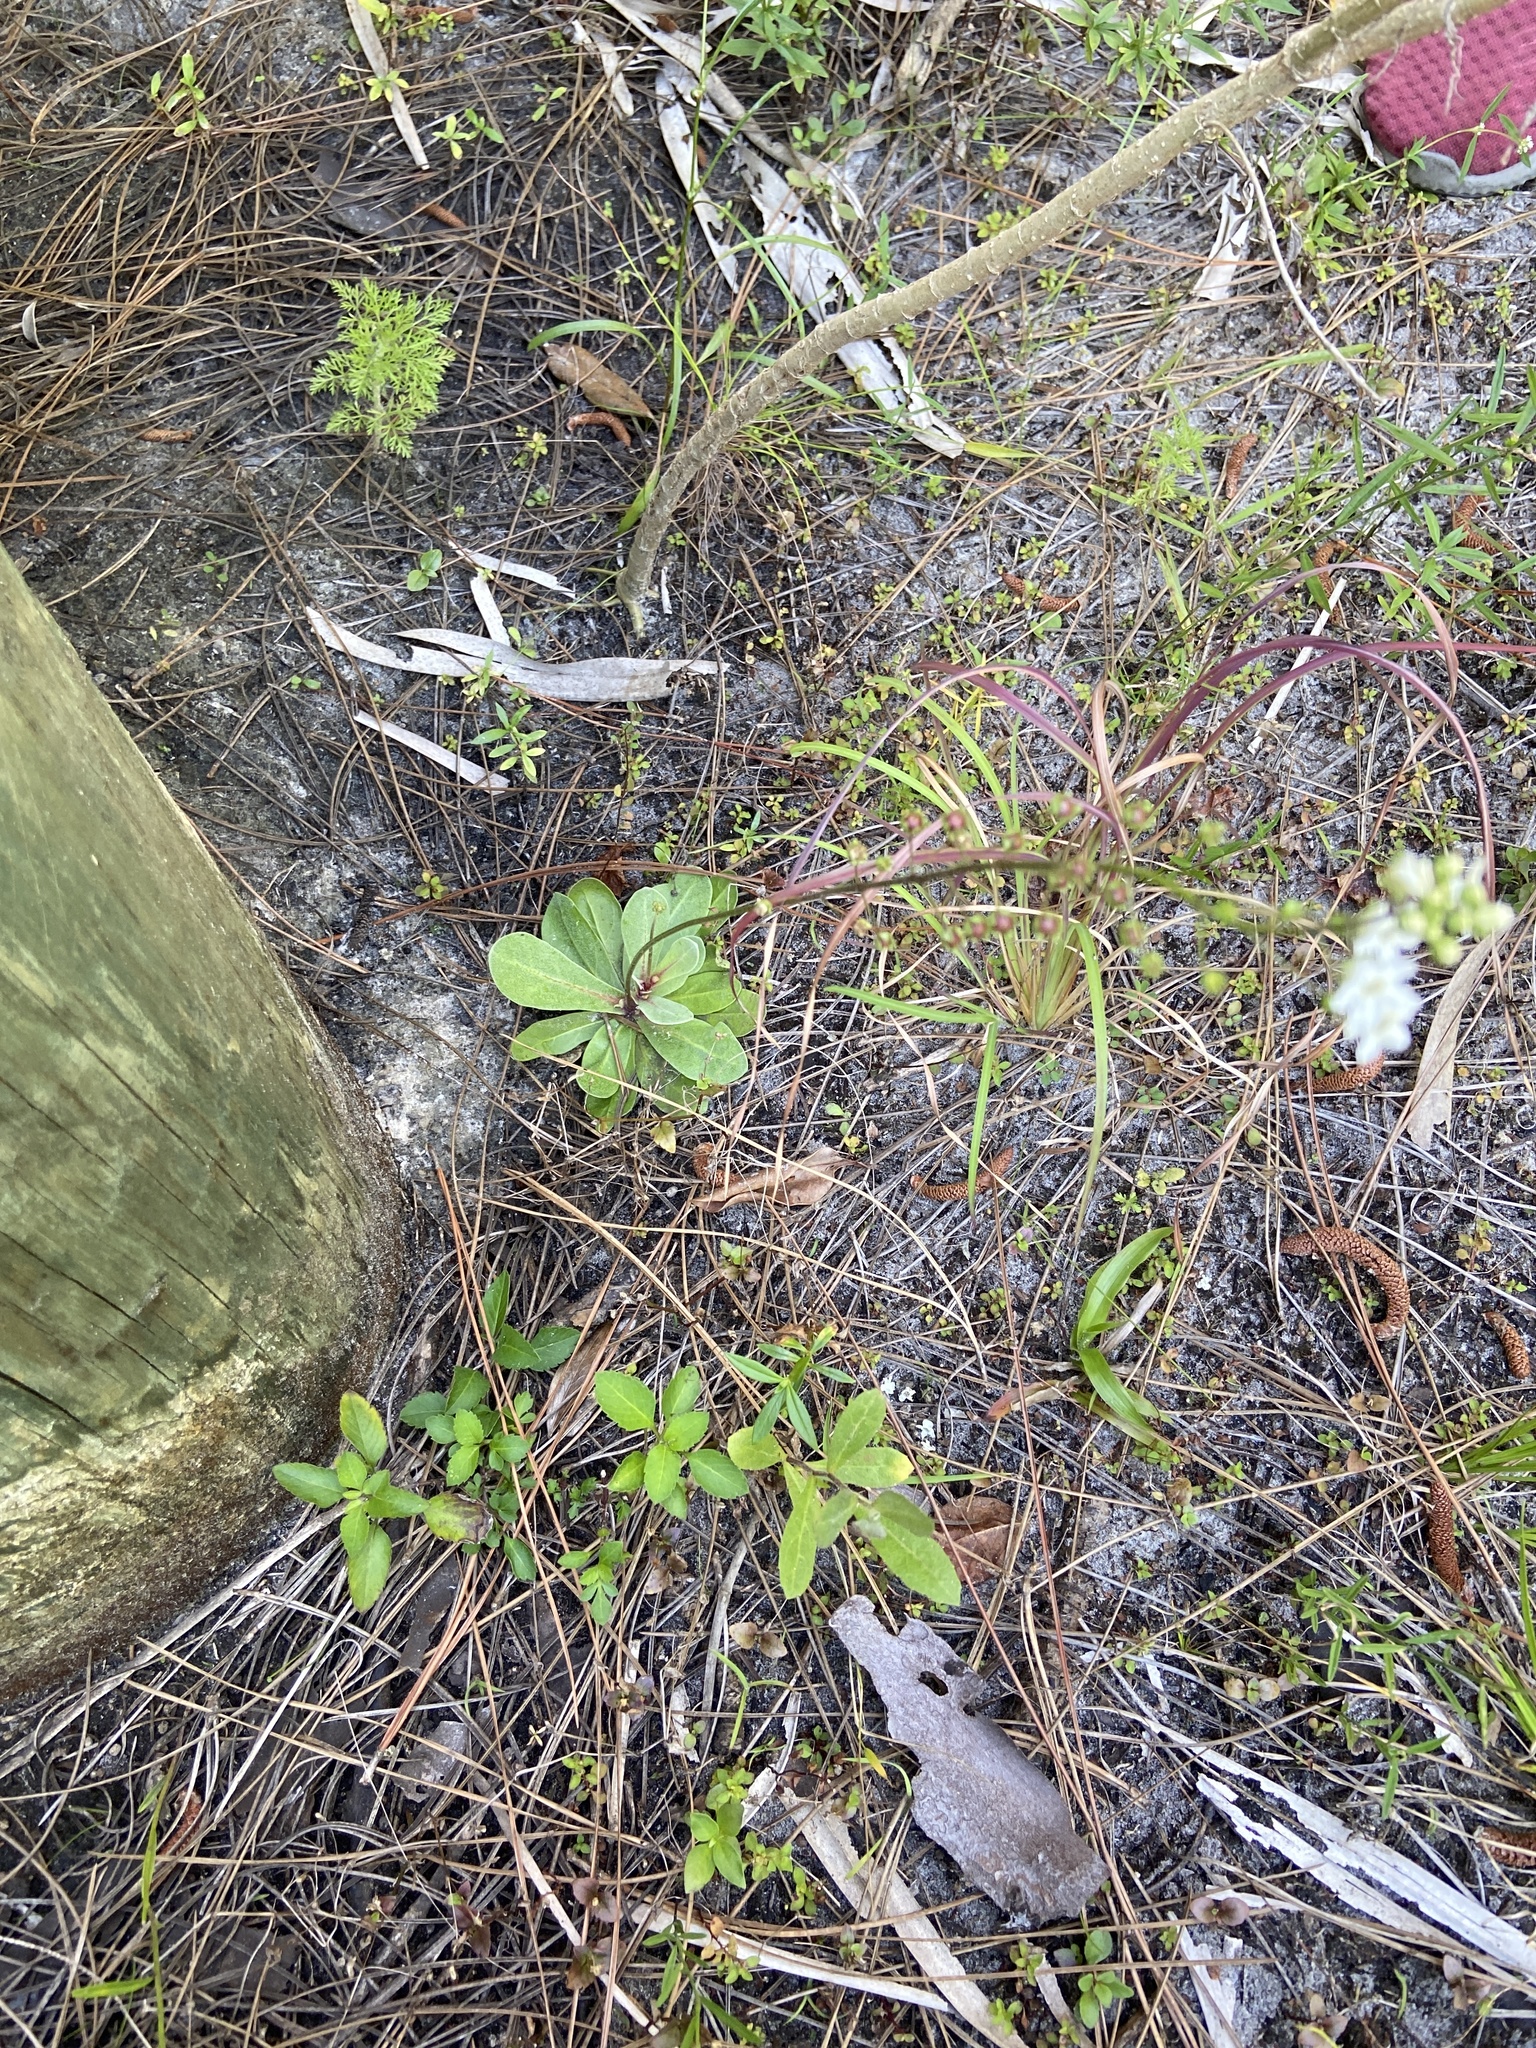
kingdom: Plantae
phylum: Tracheophyta
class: Magnoliopsida
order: Ericales
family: Primulaceae
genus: Samolus
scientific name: Samolus ebracteatus
